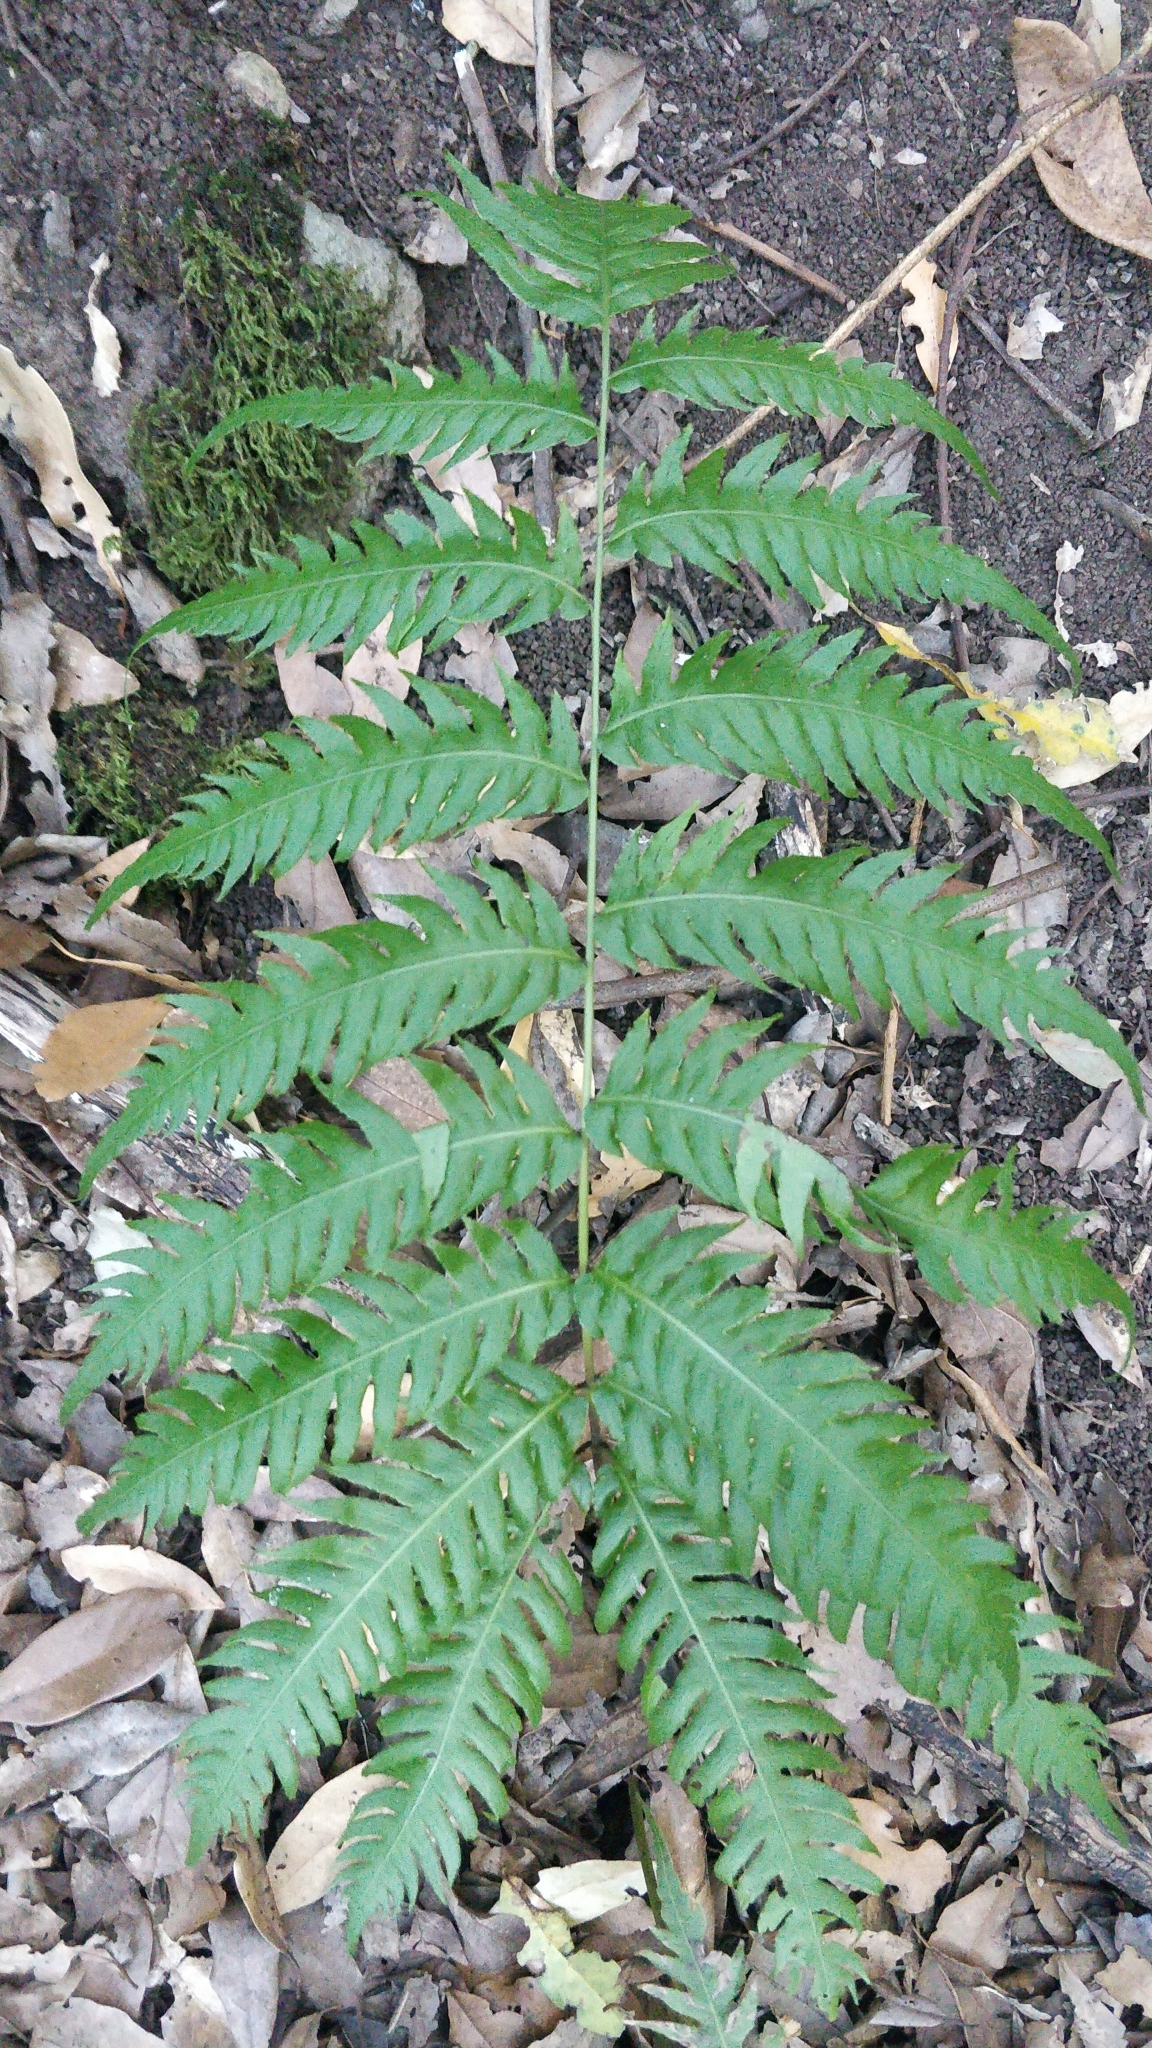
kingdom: Plantae
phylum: Tracheophyta
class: Polypodiopsida
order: Polypodiales
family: Blechnaceae
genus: Woodwardia
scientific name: Woodwardia radicans
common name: Rooting chainfern
